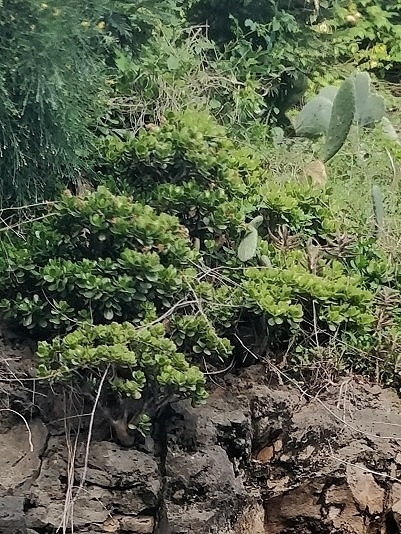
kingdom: Plantae
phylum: Tracheophyta
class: Magnoliopsida
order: Saxifragales
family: Crassulaceae
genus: Crassula
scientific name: Crassula ovata
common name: Jade plant
